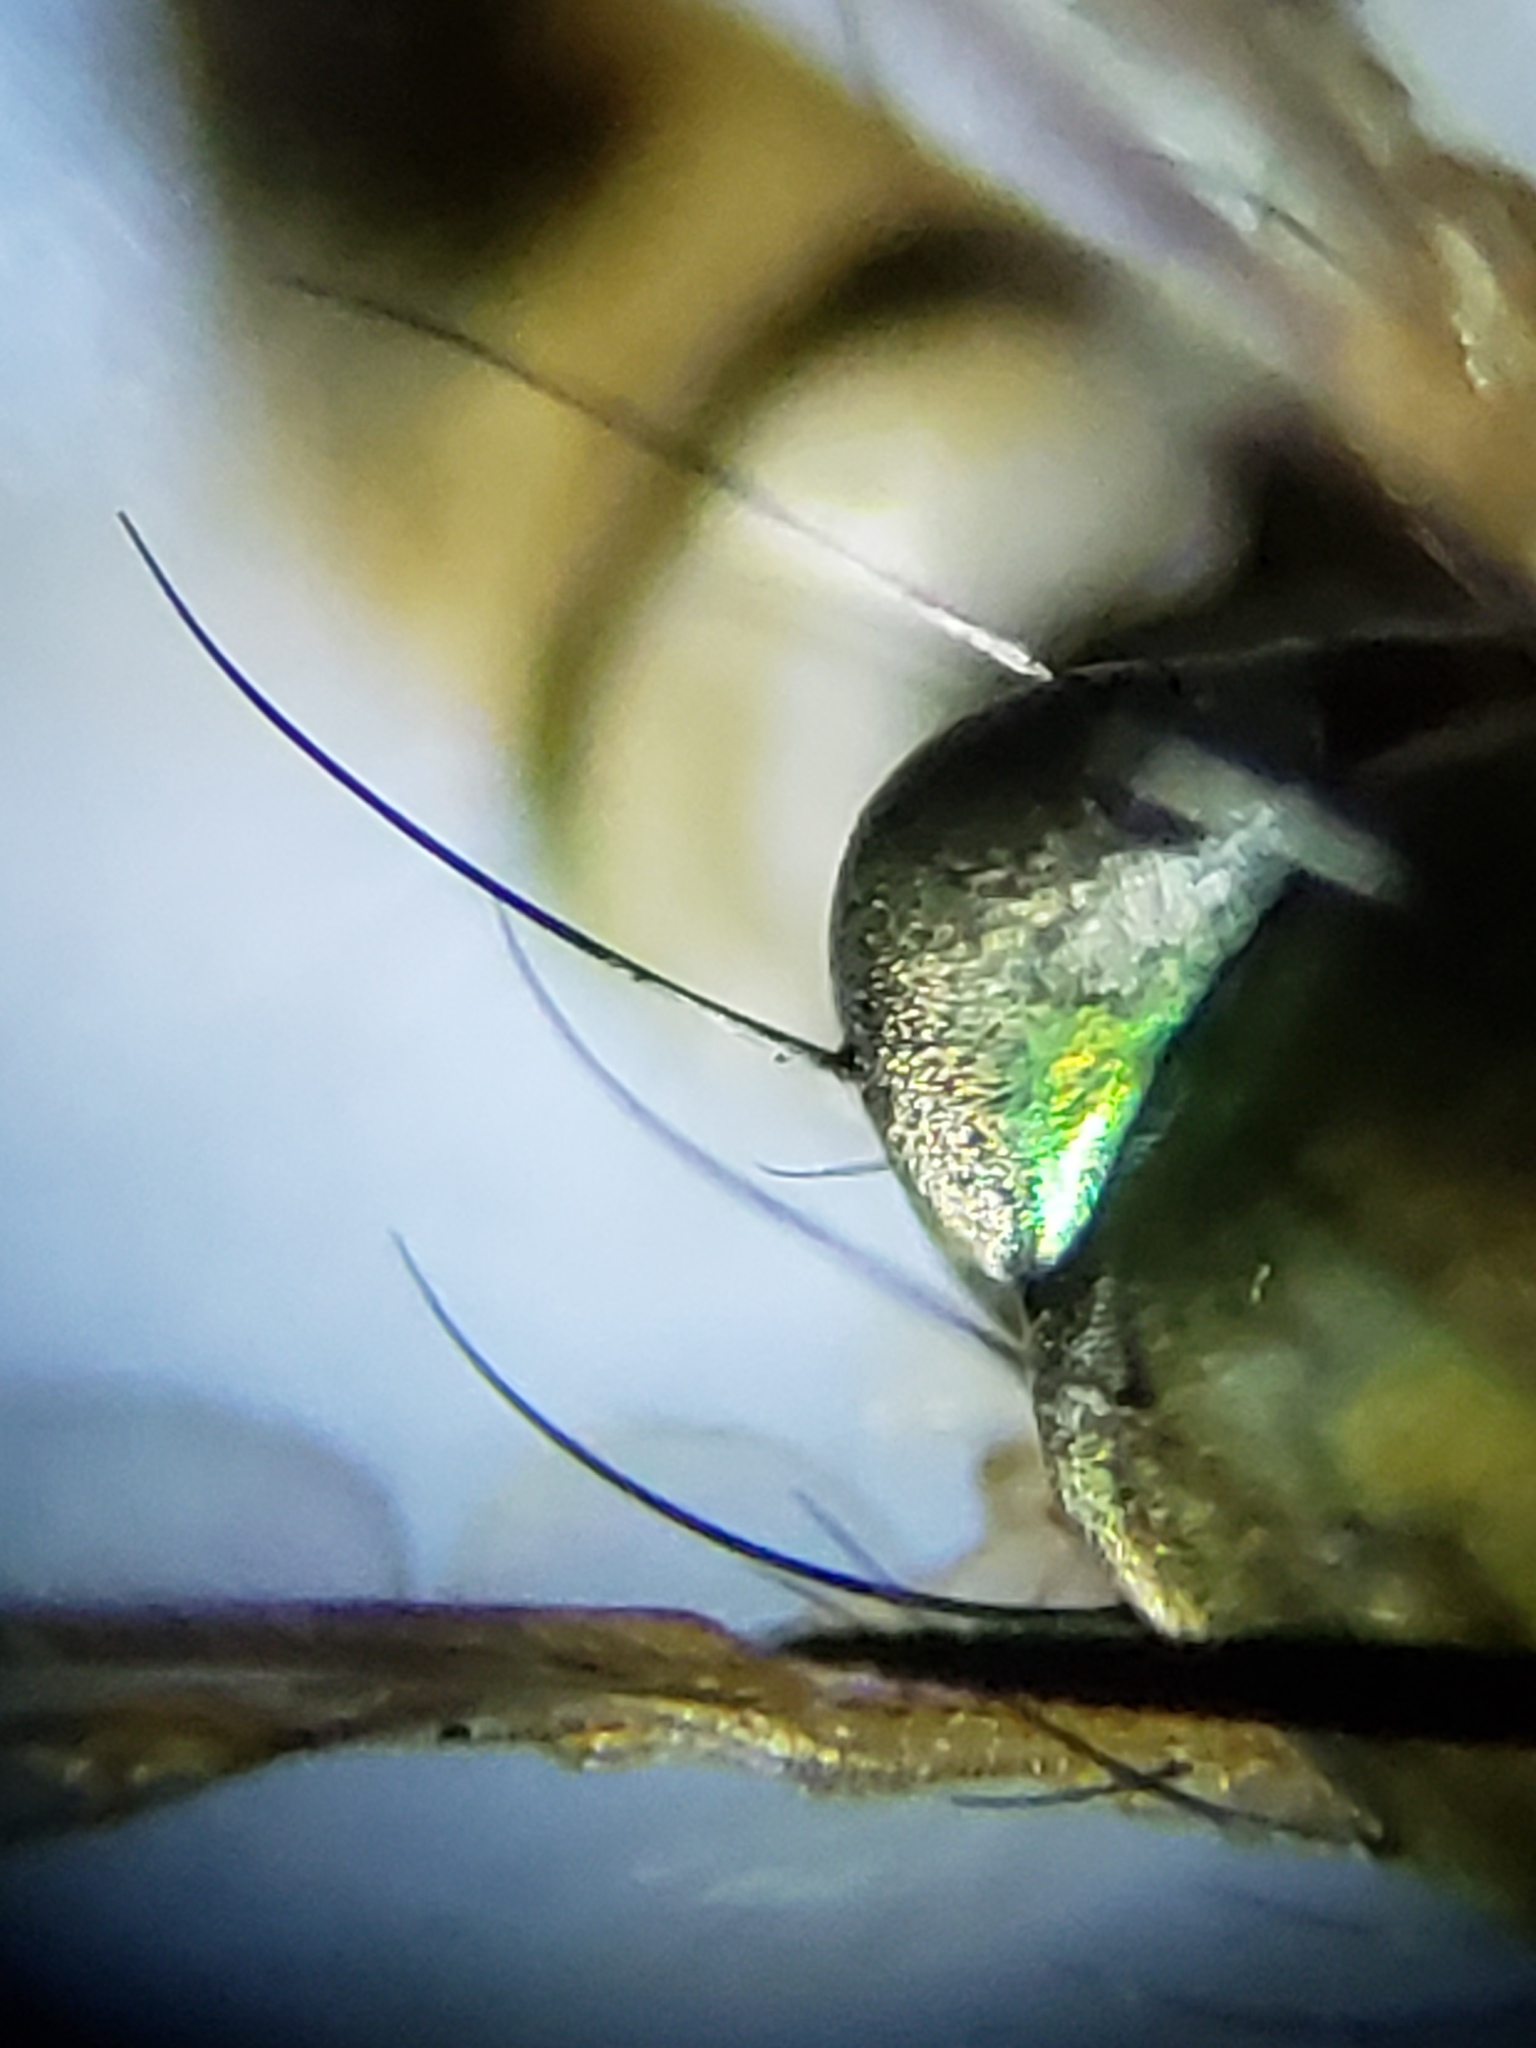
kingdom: Animalia
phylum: Arthropoda
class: Insecta
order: Diptera
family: Dolichopodidae
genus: Amblypsilopus
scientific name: Amblypsilopus psittacinus
